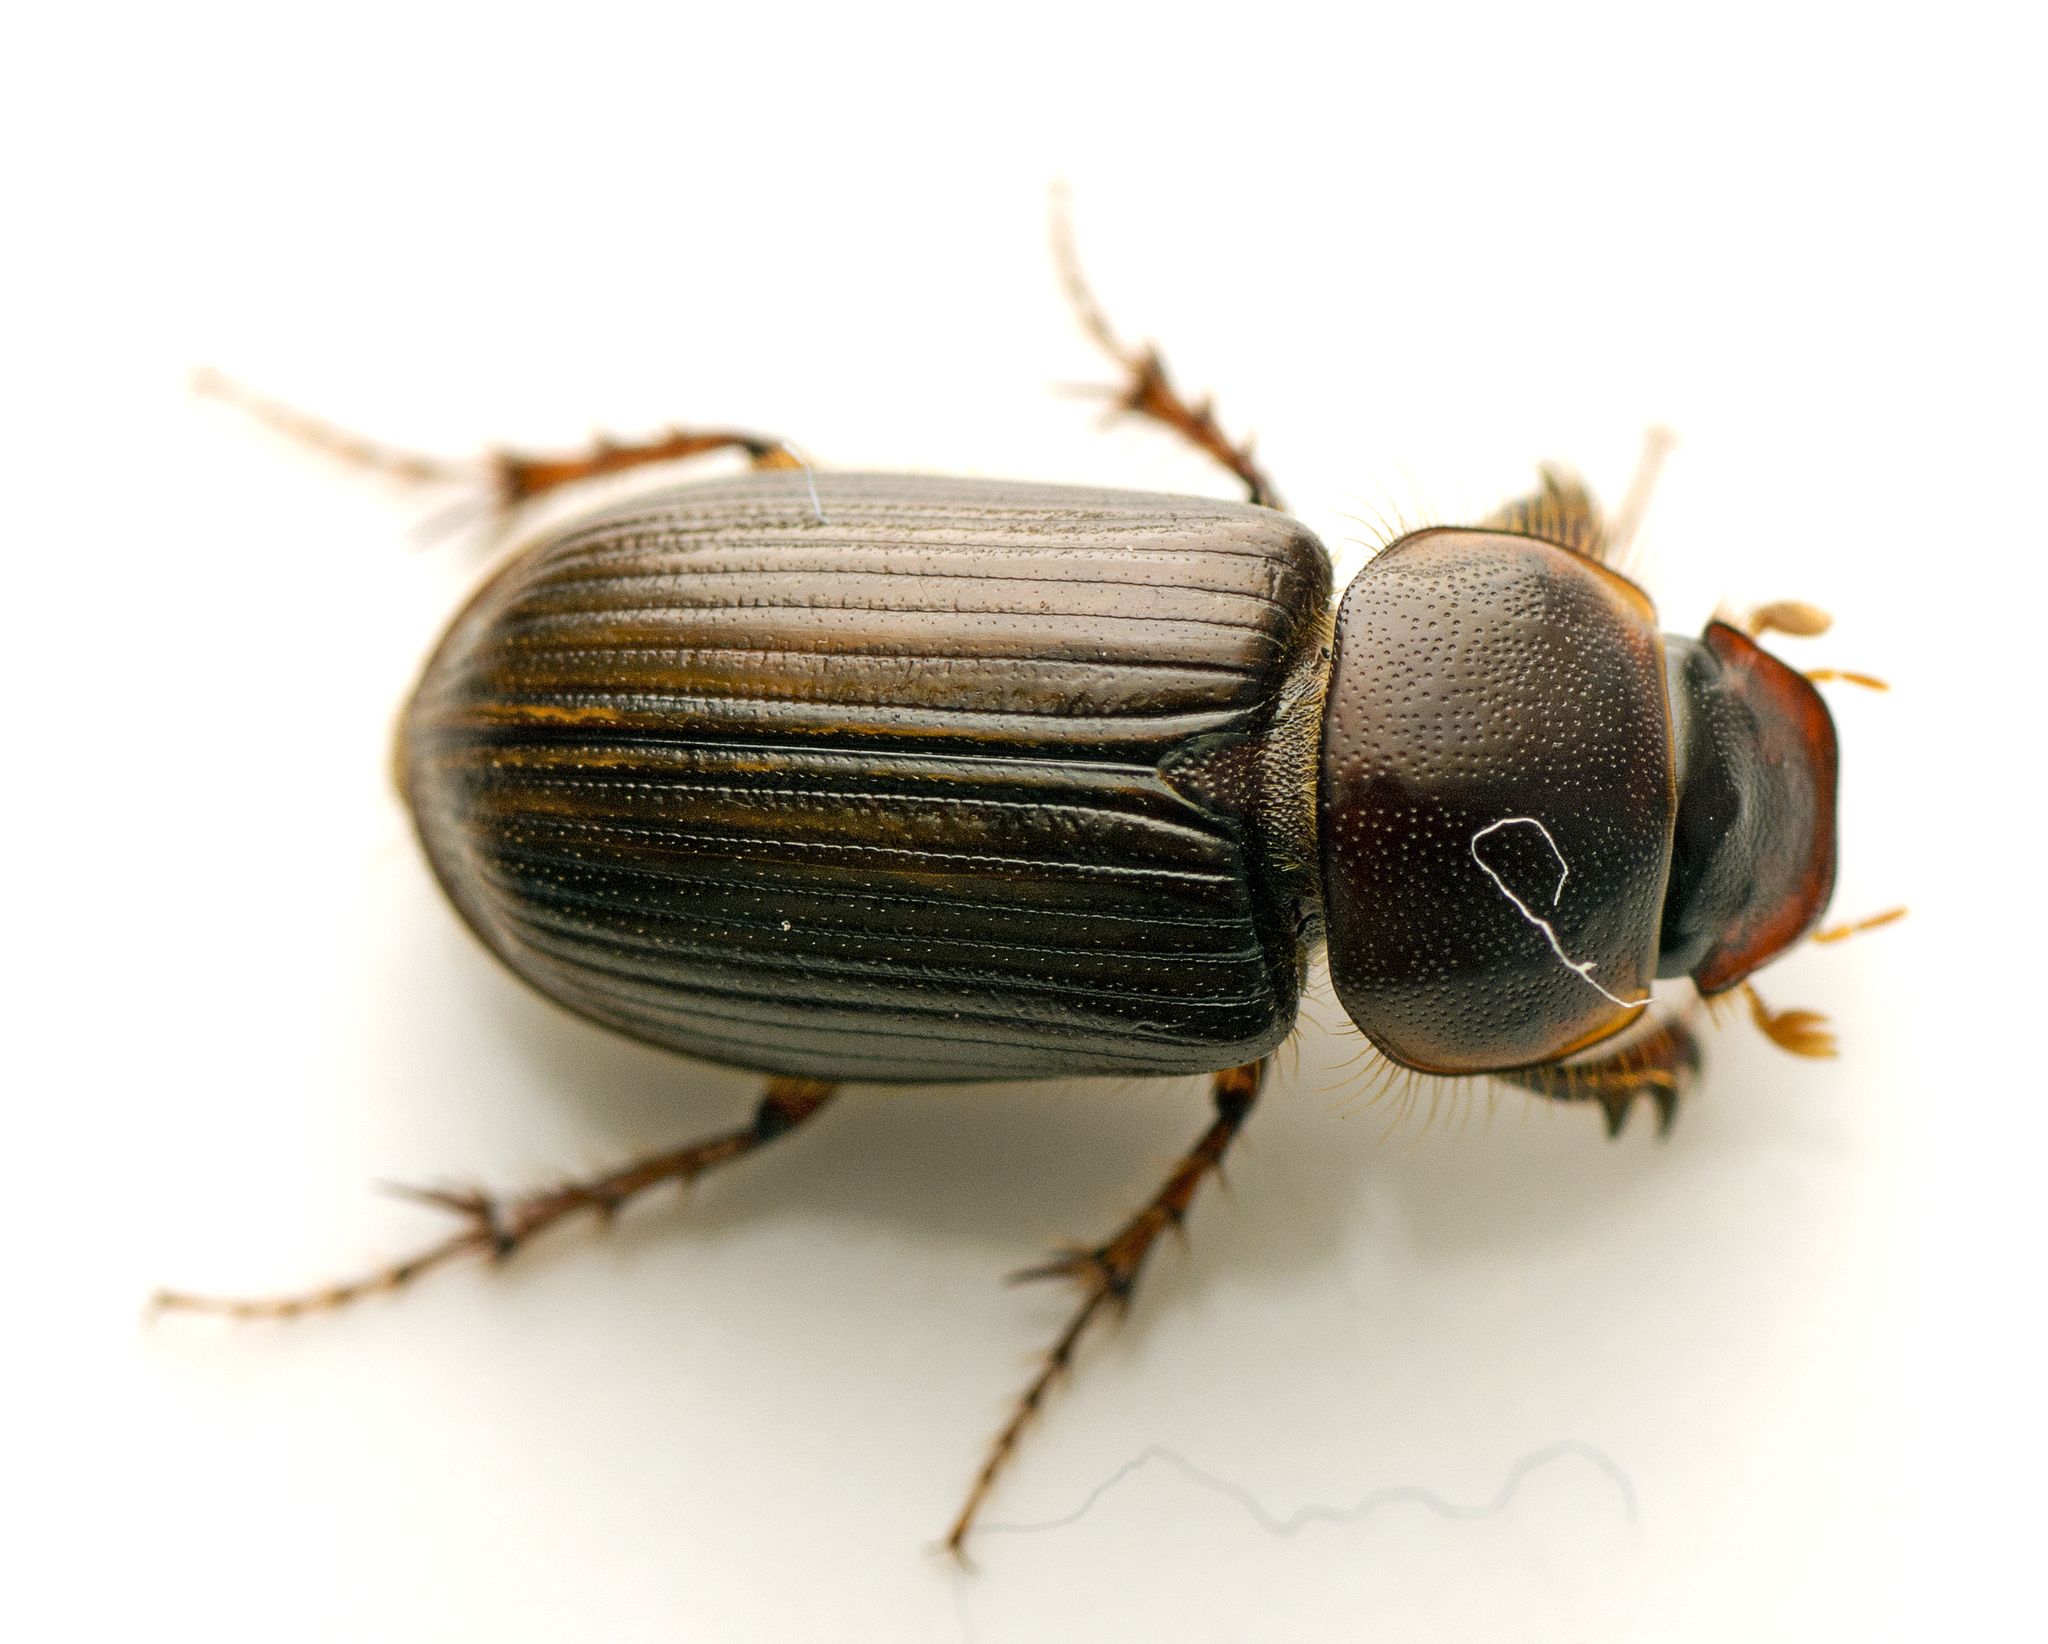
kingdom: Animalia
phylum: Arthropoda
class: Insecta
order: Coleoptera
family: Scarabaeidae
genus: Acrossidius
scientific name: Acrossidius tasmaniae
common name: Black-headed pasture cockchafer
